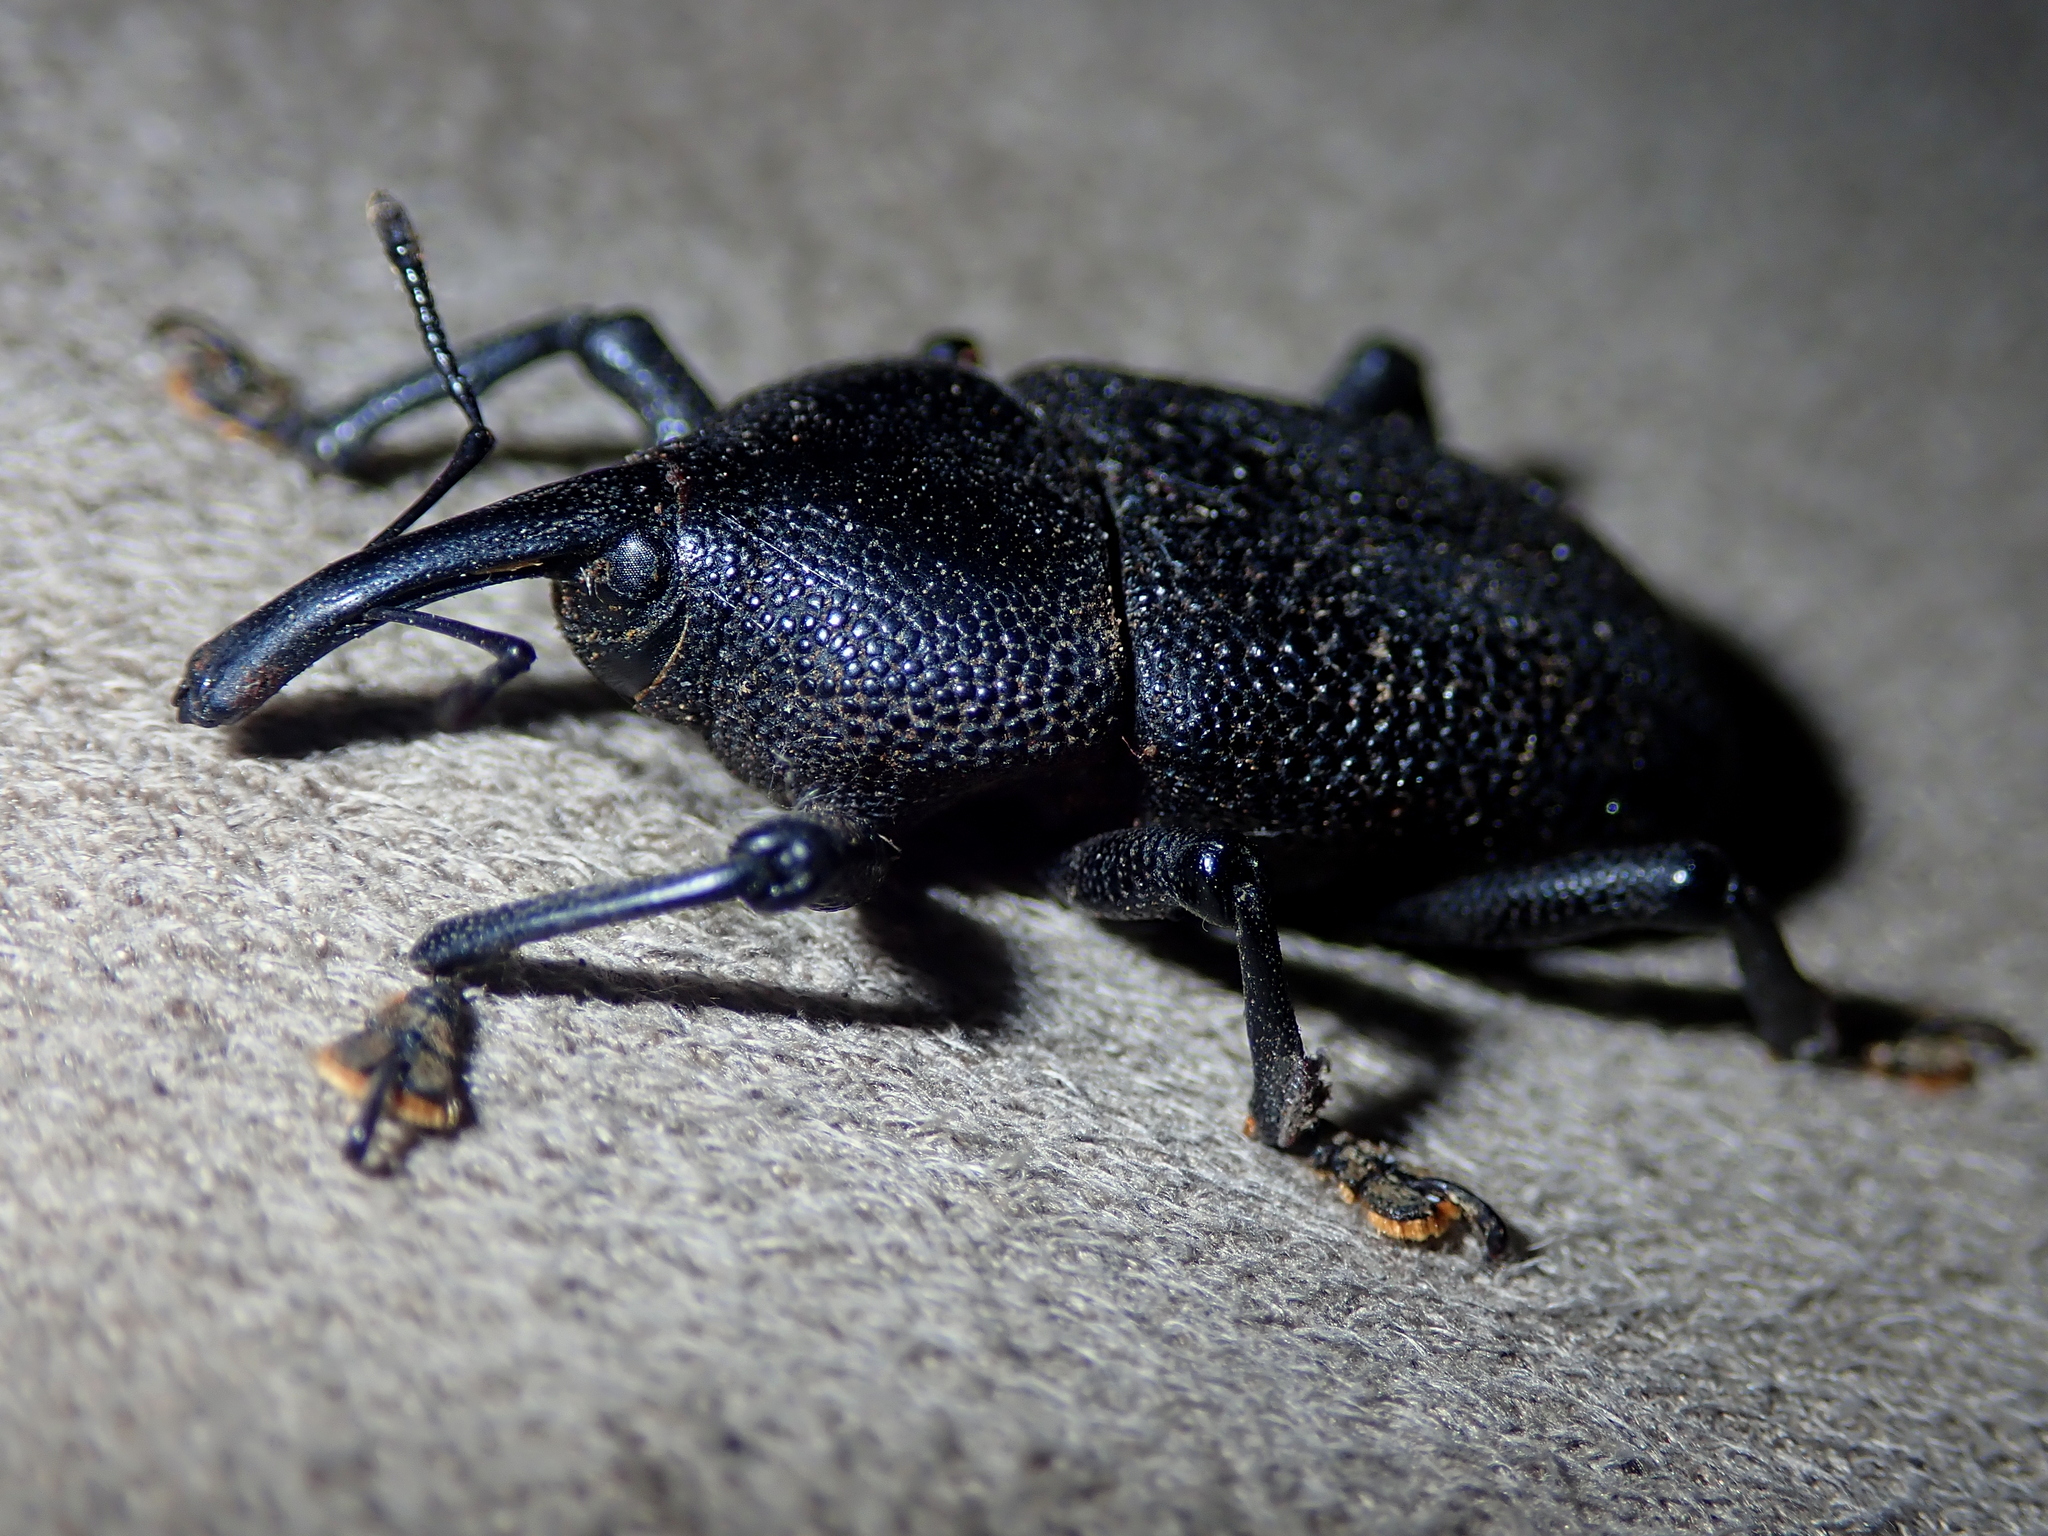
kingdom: Animalia
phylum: Arthropoda
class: Insecta
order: Coleoptera
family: Curculionidae
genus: Homalinotus
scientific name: Homalinotus coriaceus
